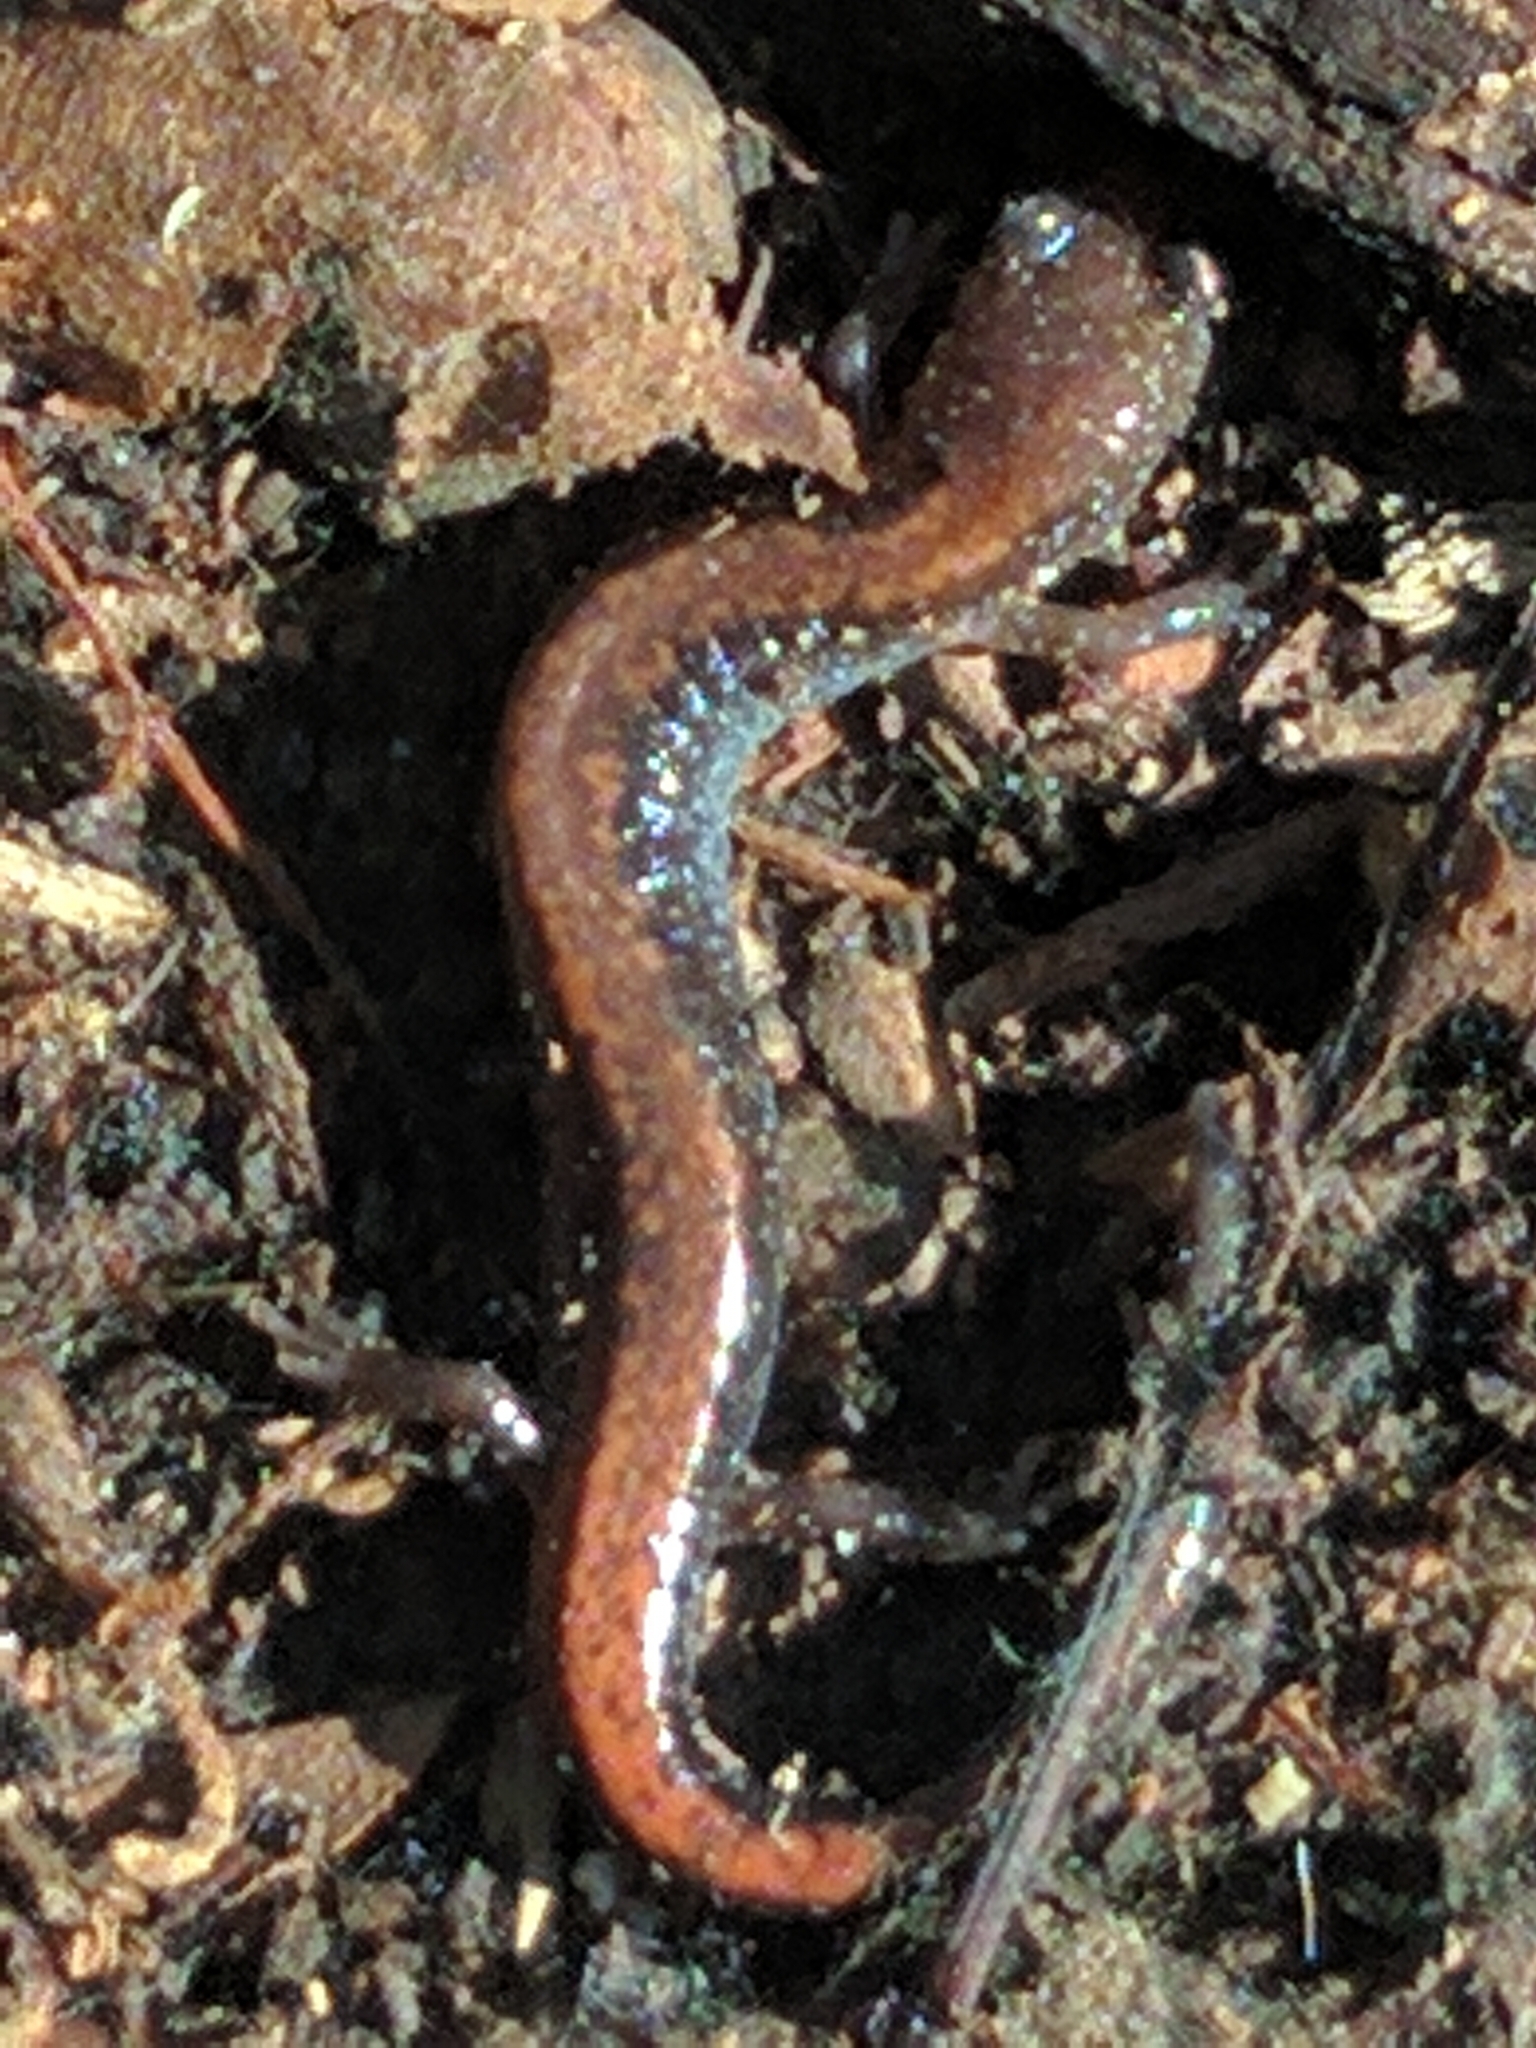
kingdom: Animalia
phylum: Chordata
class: Amphibia
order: Caudata
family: Plethodontidae
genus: Plethodon
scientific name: Plethodon cinereus
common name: Redback salamander
